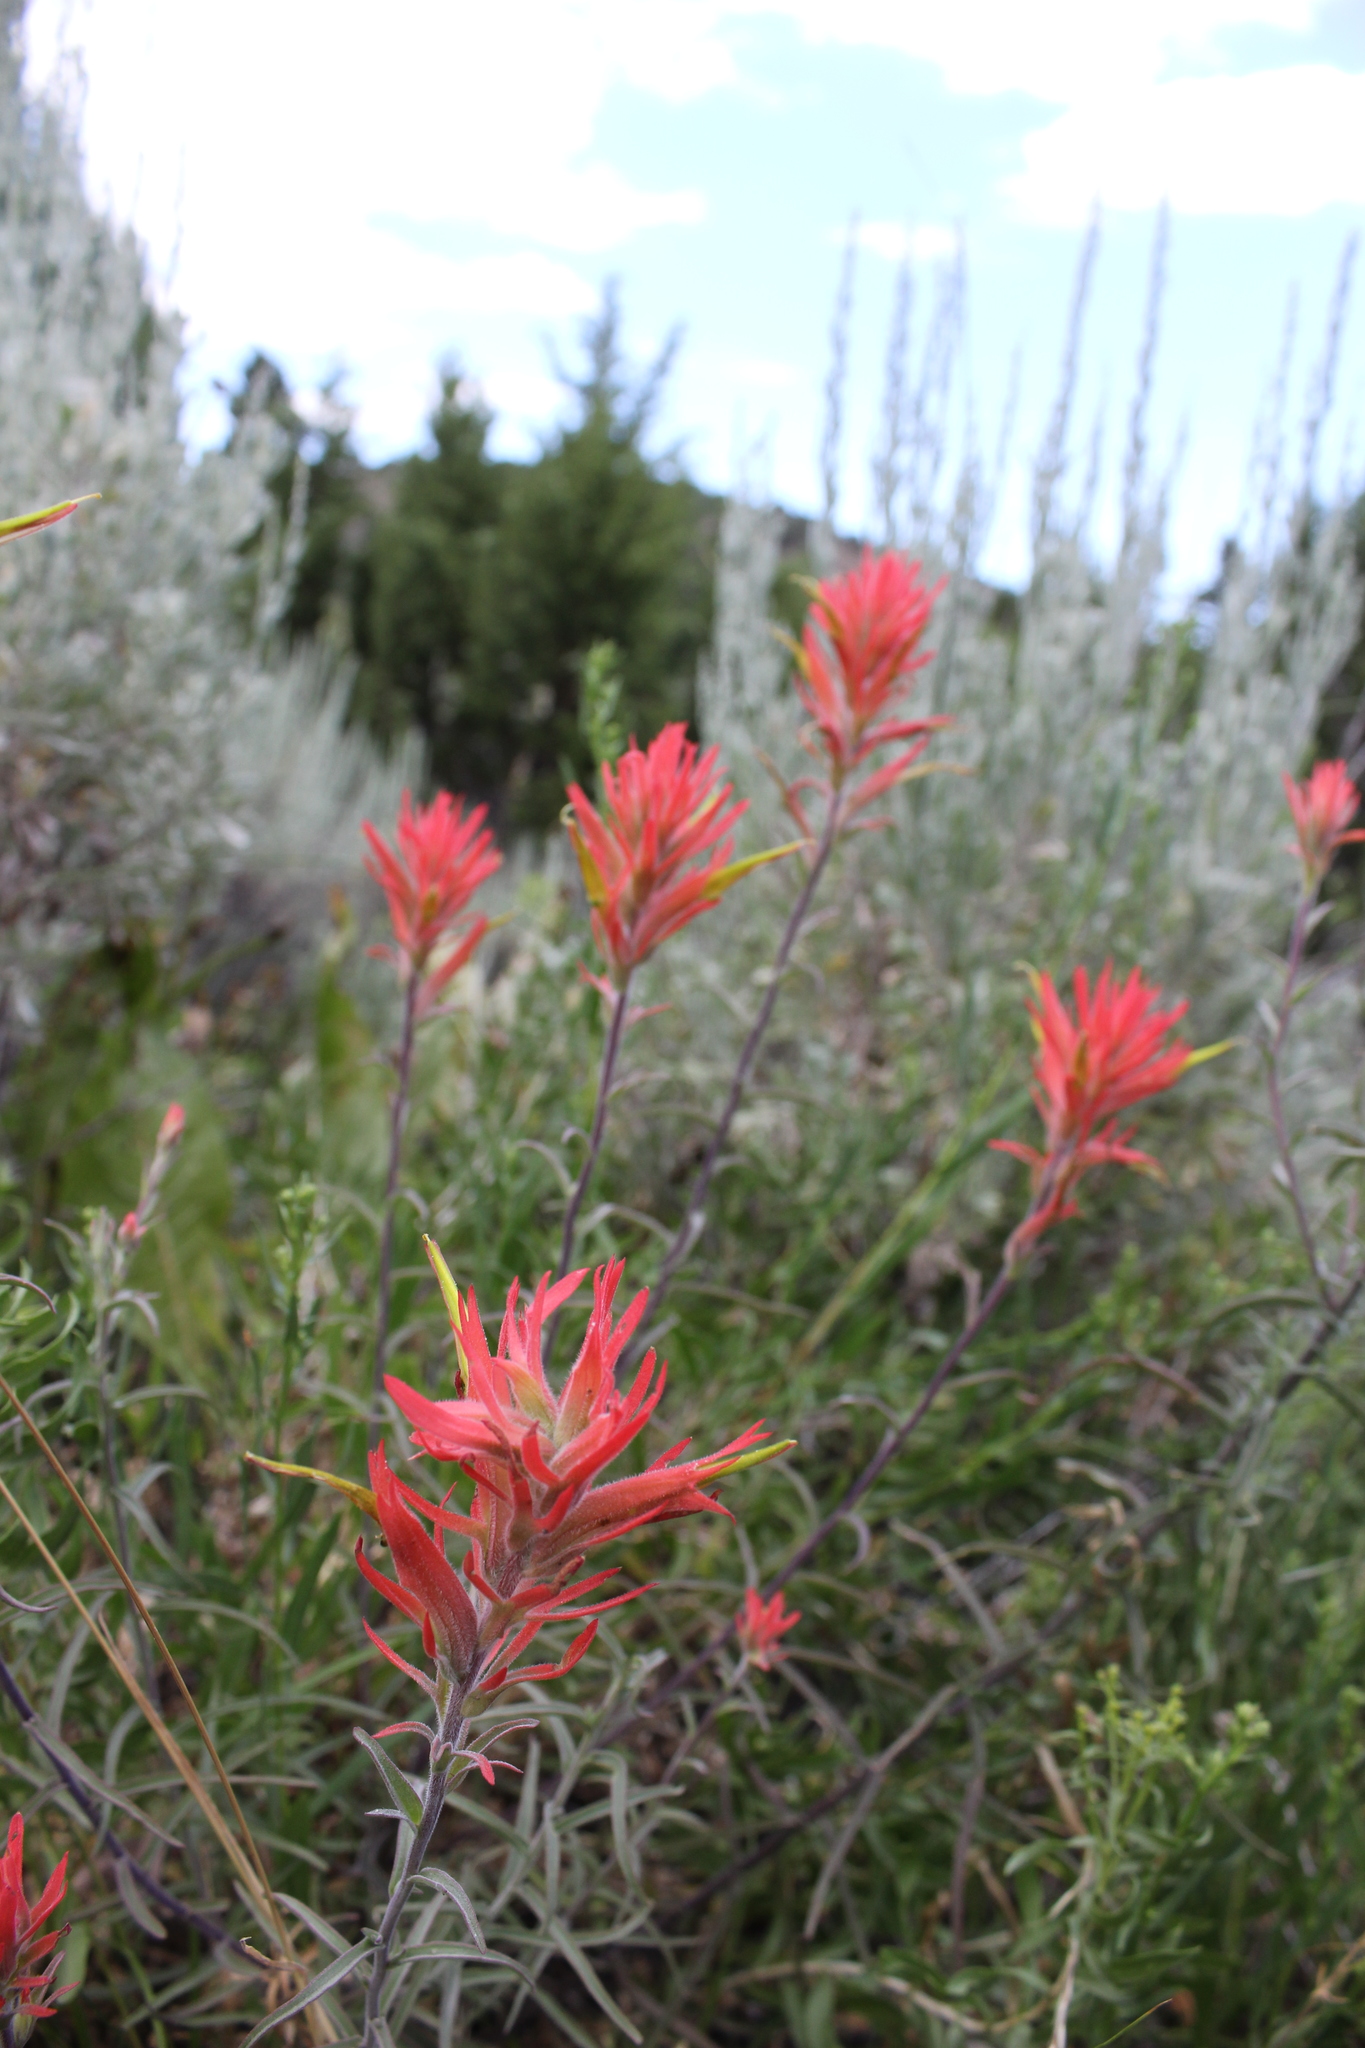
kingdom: Plantae
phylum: Tracheophyta
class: Magnoliopsida
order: Lamiales
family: Orobanchaceae
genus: Castilleja
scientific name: Castilleja linariifolia
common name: Wyoming paintbrush
